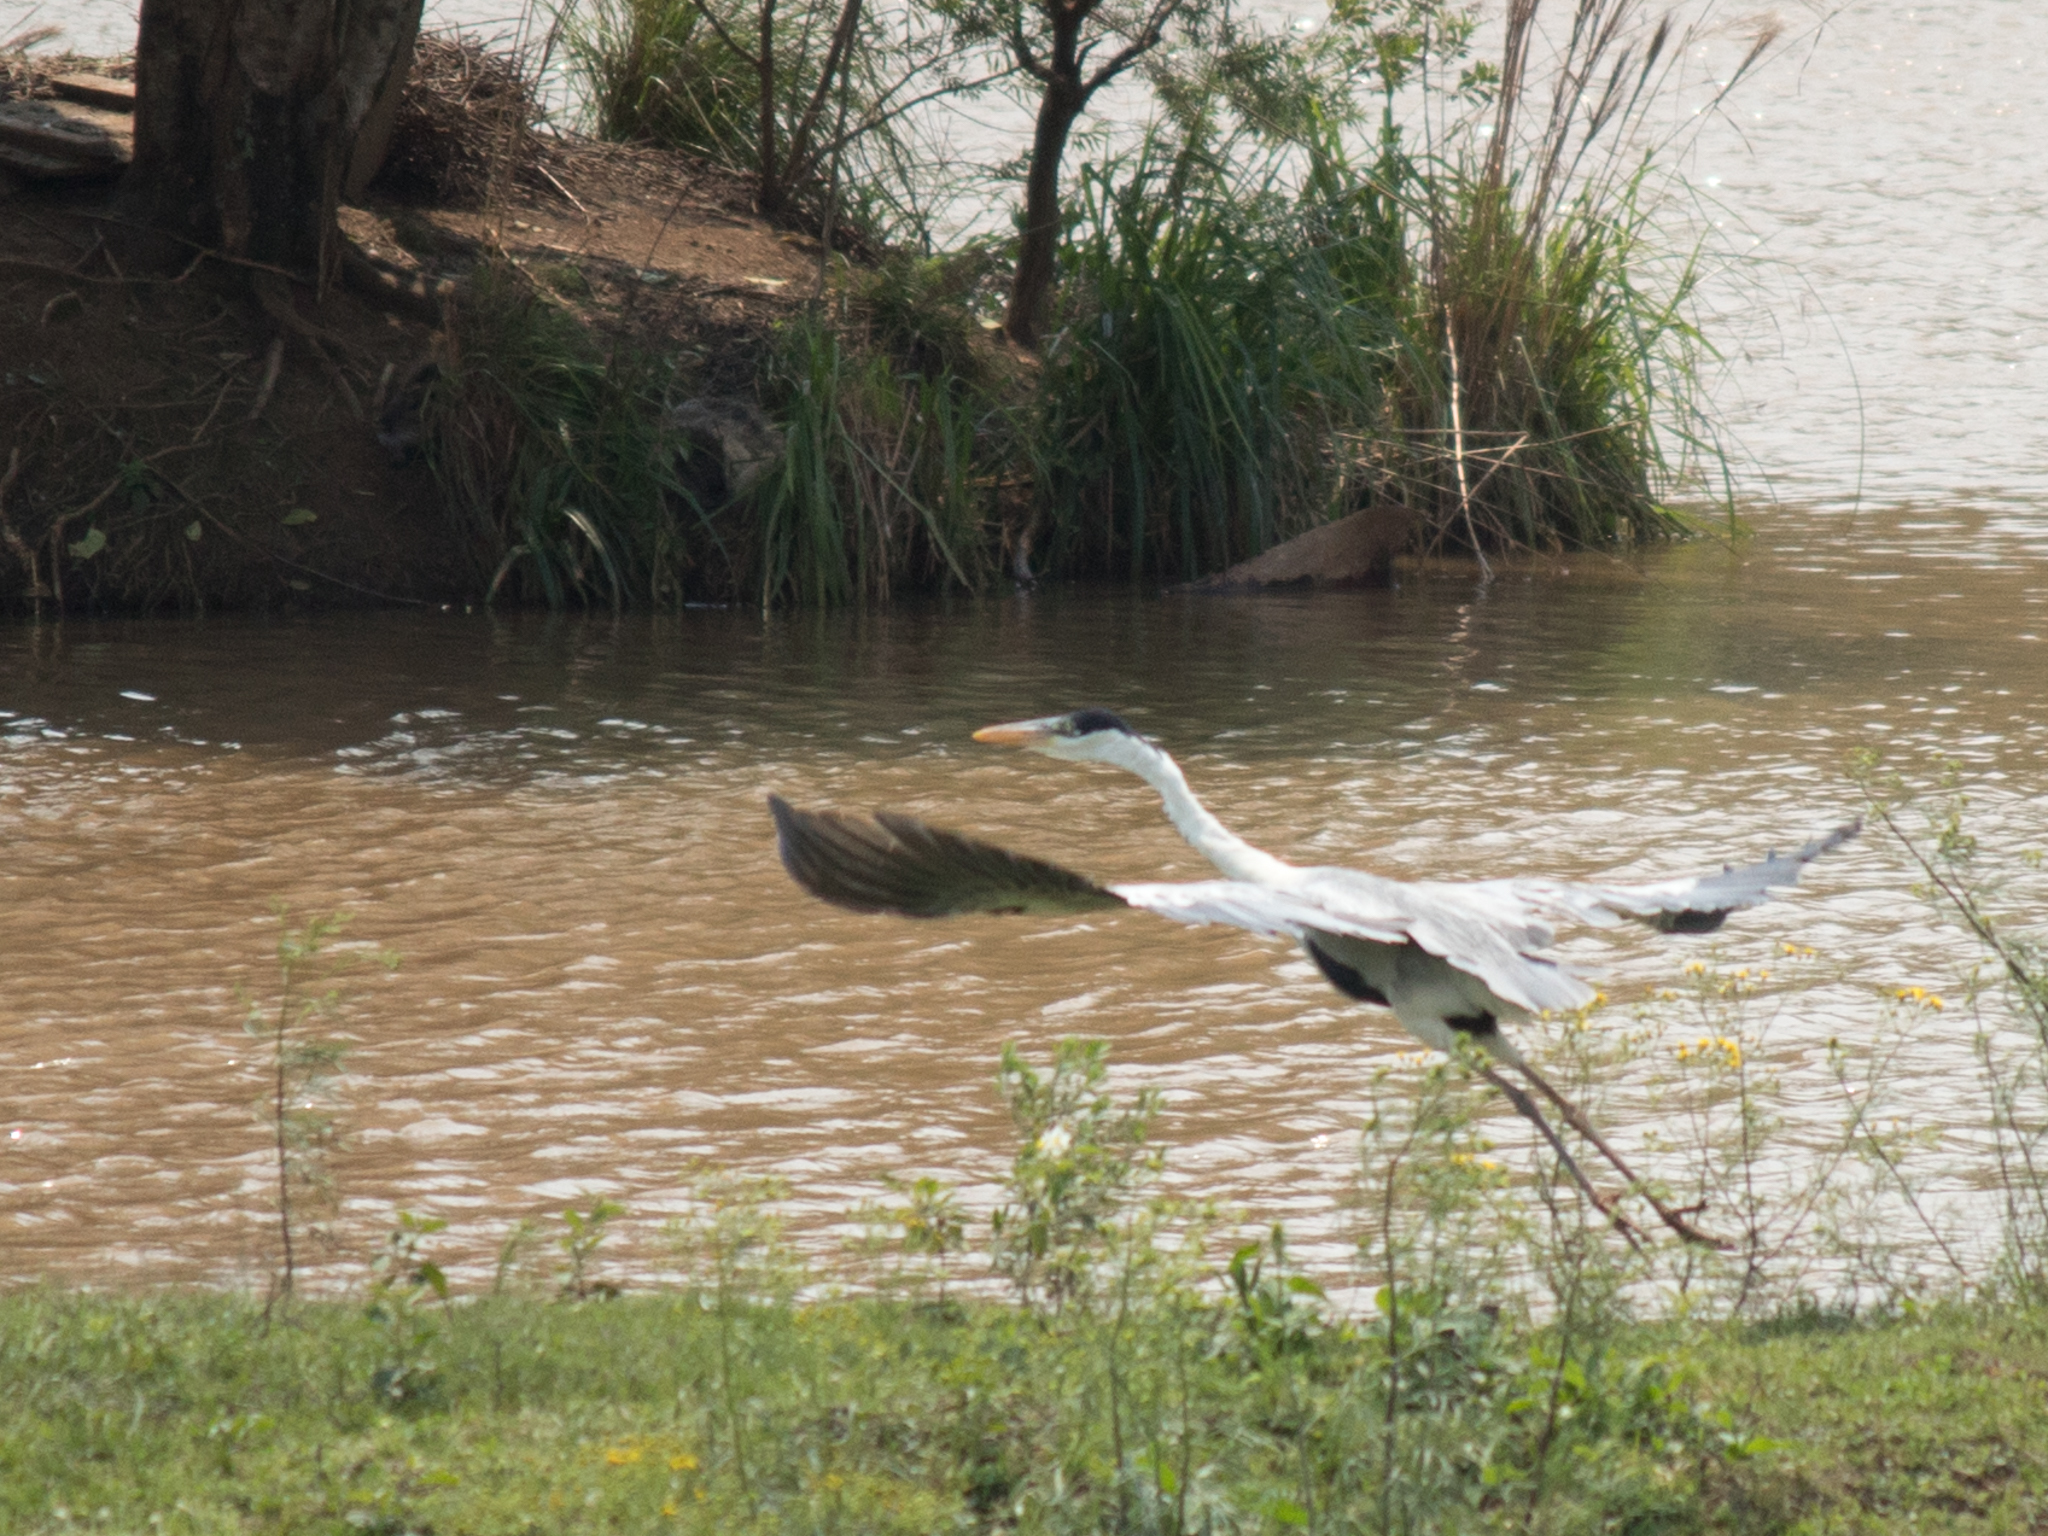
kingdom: Animalia
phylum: Chordata
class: Aves
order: Pelecaniformes
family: Ardeidae
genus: Ardea
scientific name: Ardea cocoi
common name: Cocoi heron
